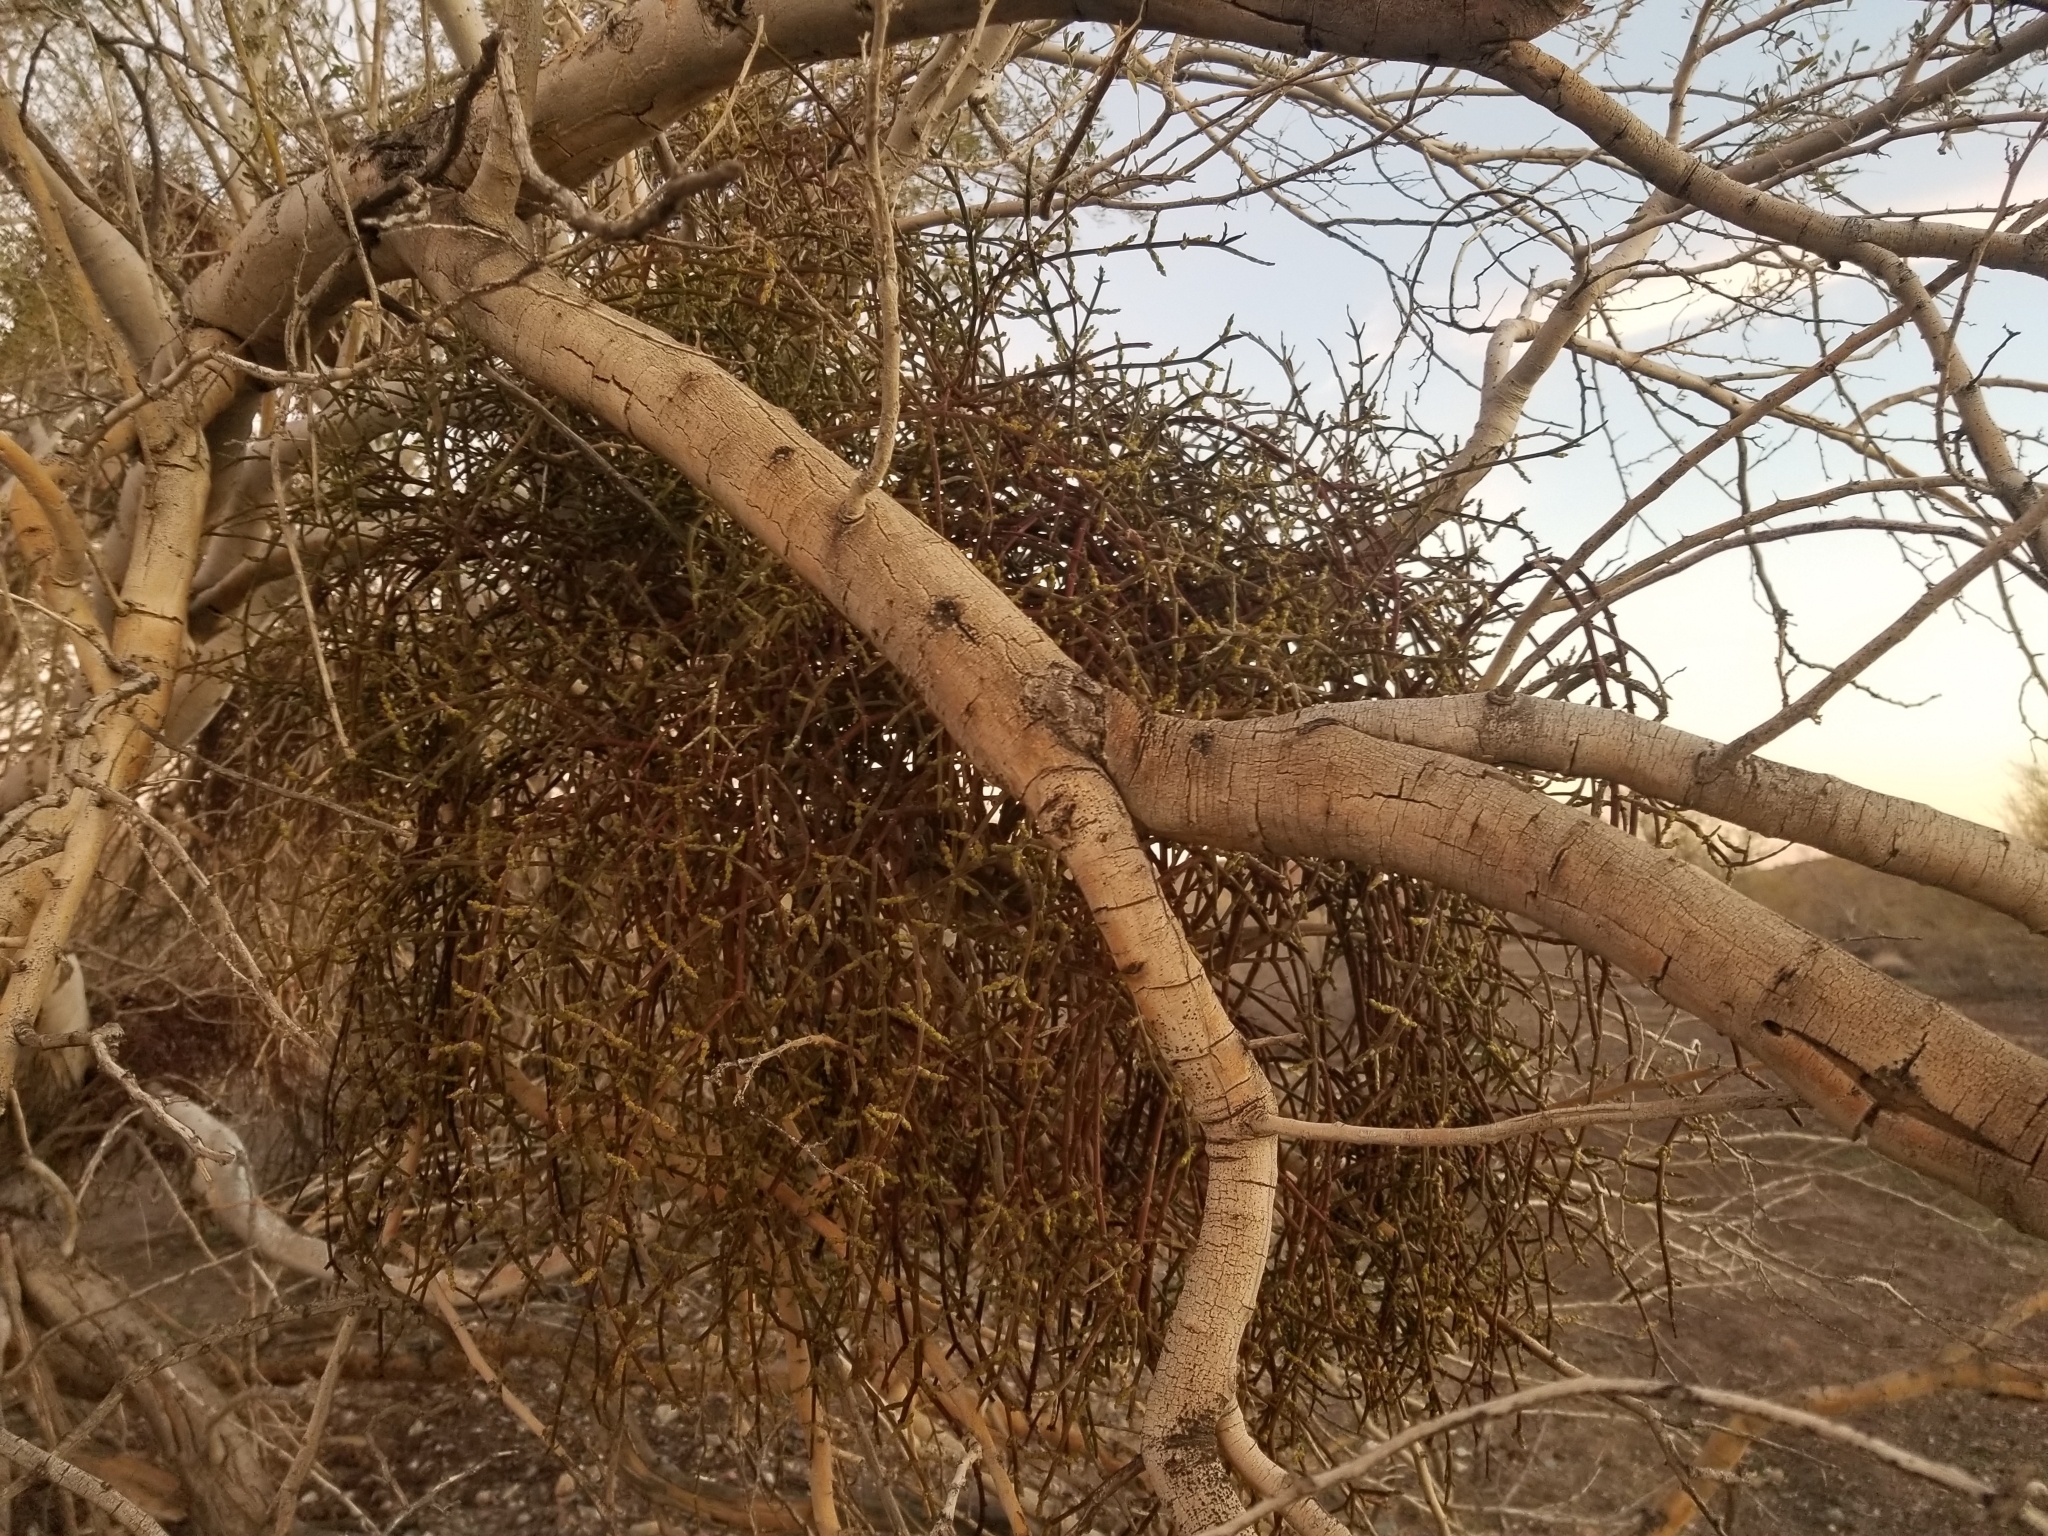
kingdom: Plantae
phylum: Tracheophyta
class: Magnoliopsida
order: Santalales
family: Viscaceae
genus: Phoradendron
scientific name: Phoradendron californicum
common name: Acacia mistletoe
